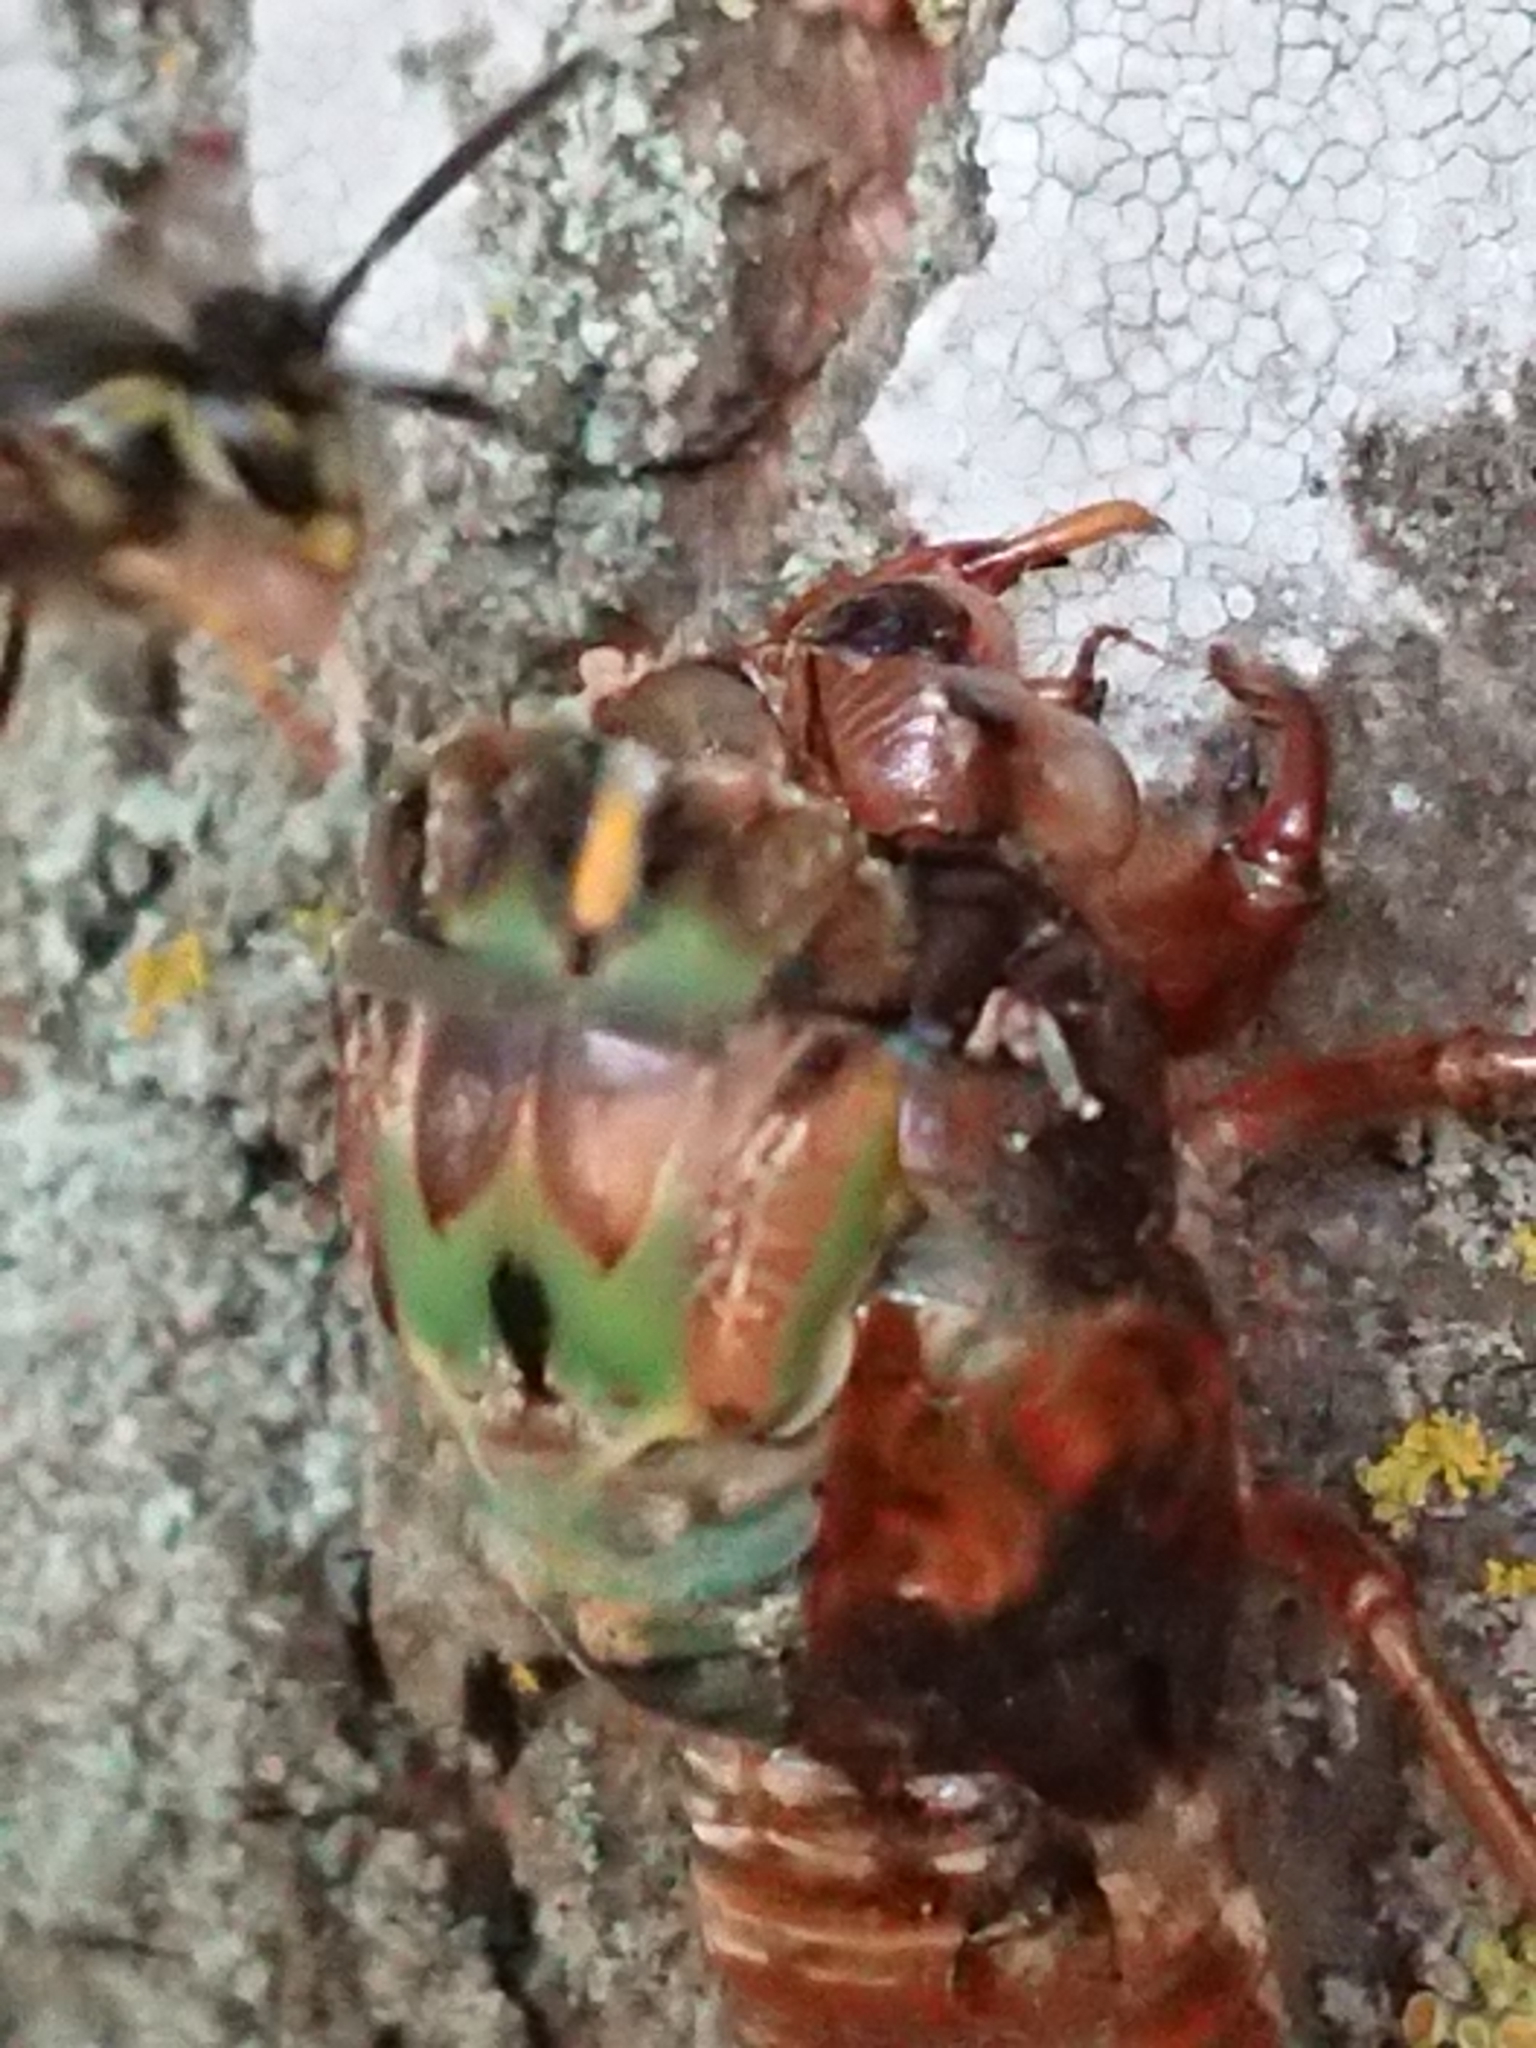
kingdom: Animalia
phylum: Arthropoda
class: Insecta
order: Hymenoptera
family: Vespidae
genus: Vespula
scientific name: Vespula vulgaris
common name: Common wasp
